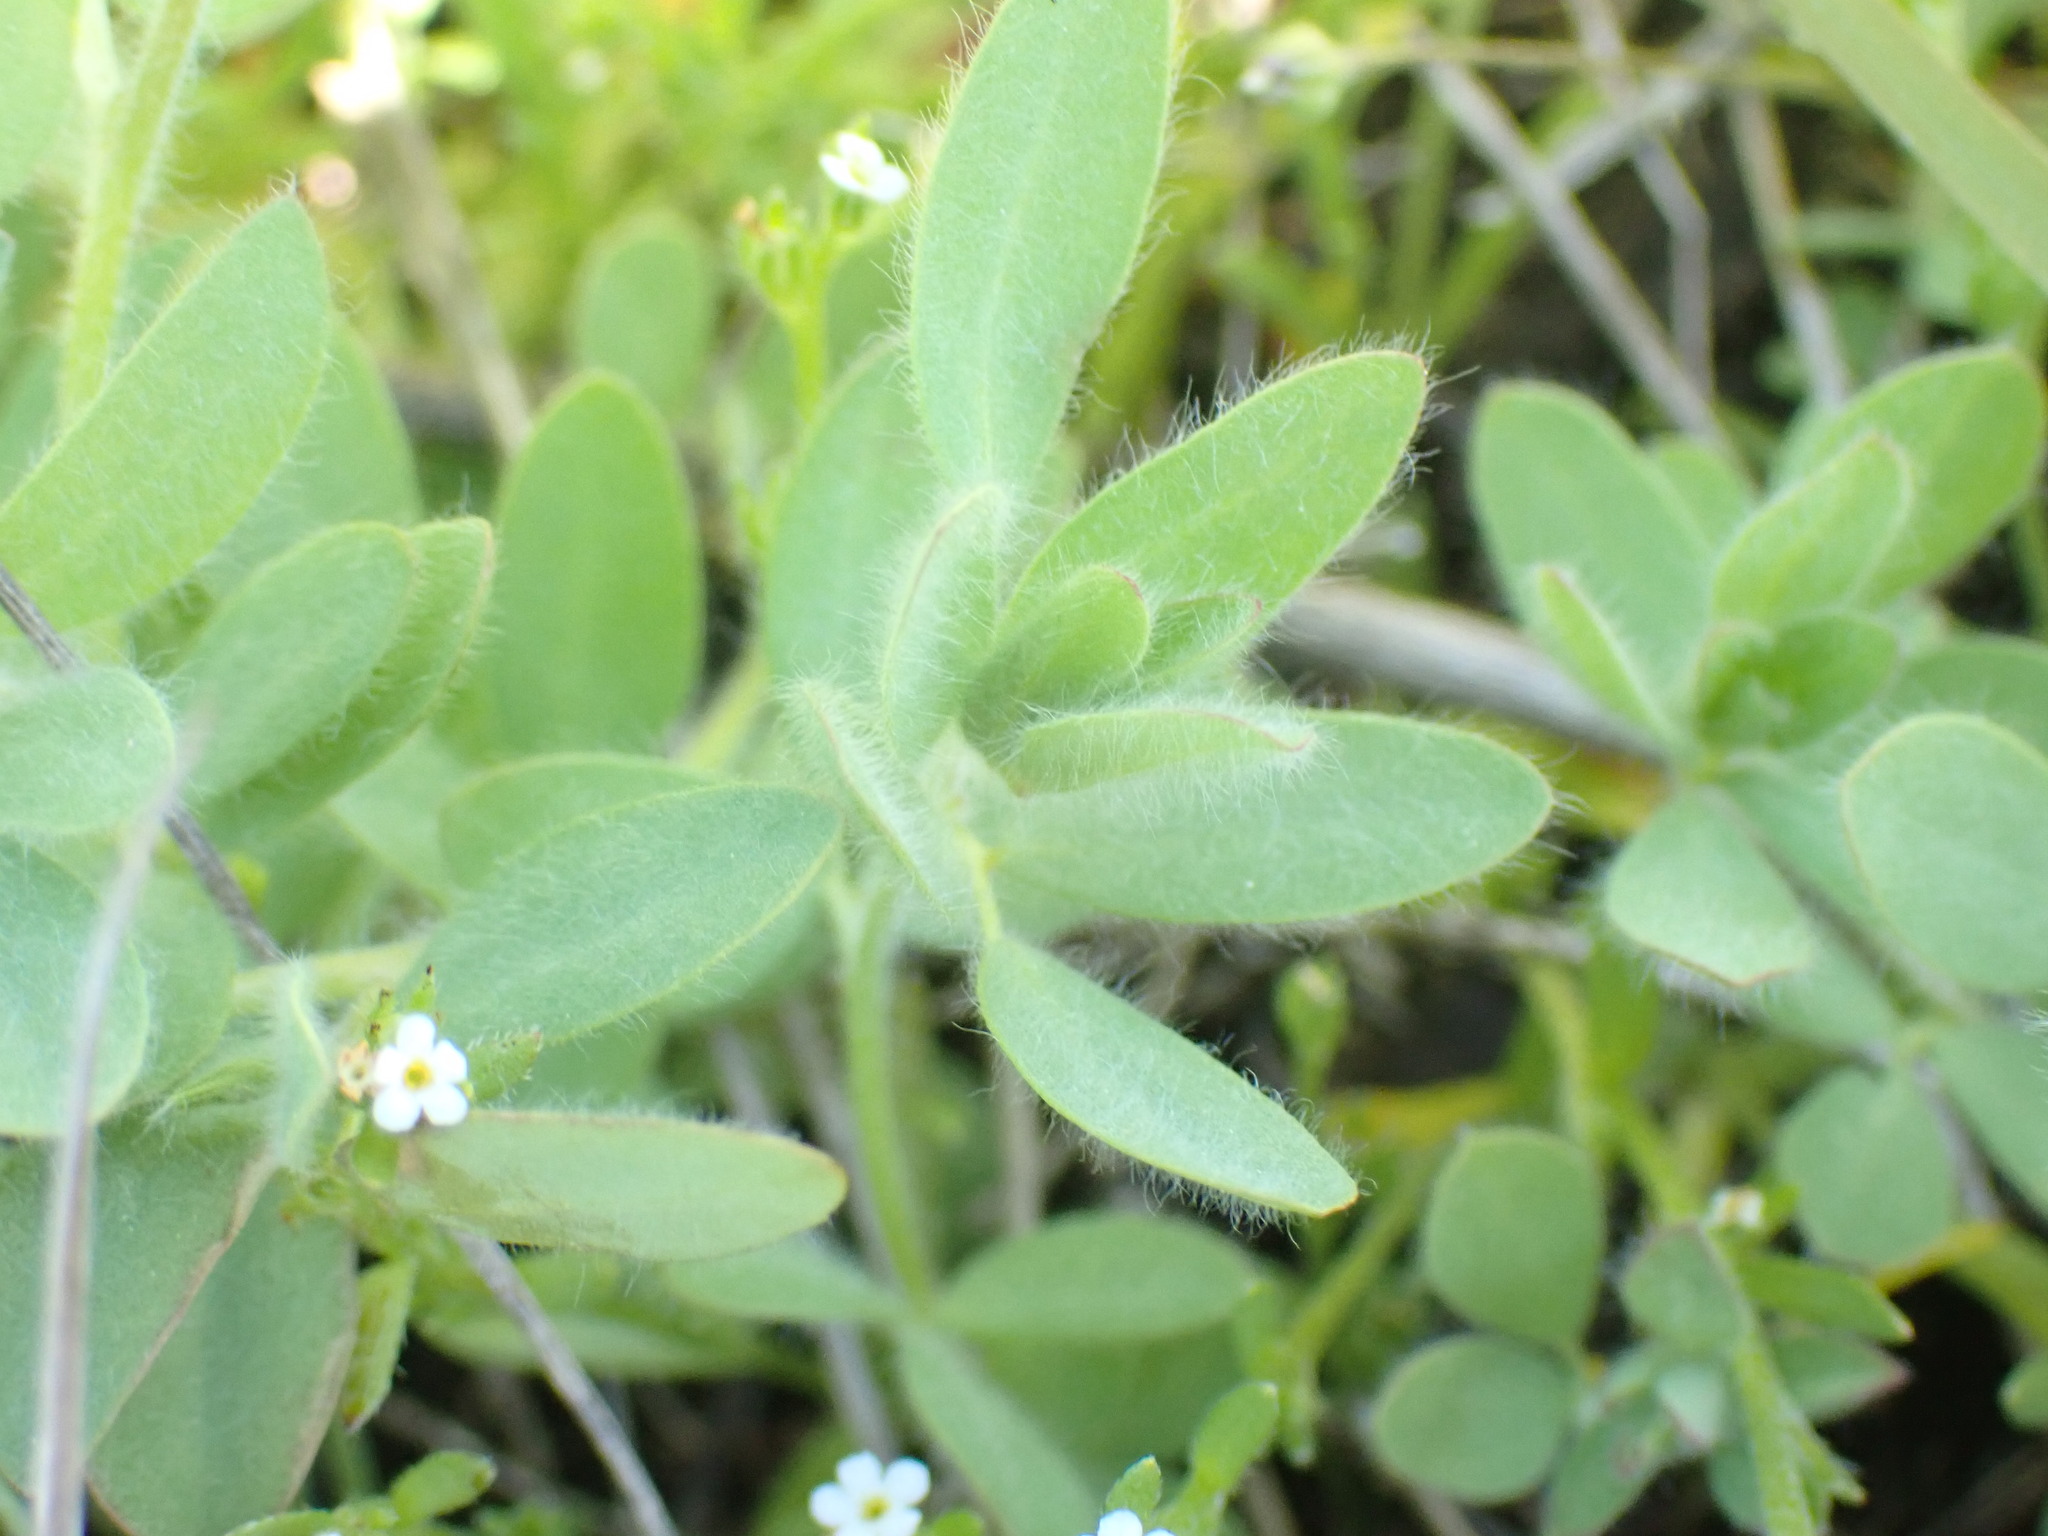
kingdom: Plantae
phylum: Tracheophyta
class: Magnoliopsida
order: Fabales
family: Fabaceae
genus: Acmispon
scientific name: Acmispon americanus
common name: American bird's-foot trefoil
